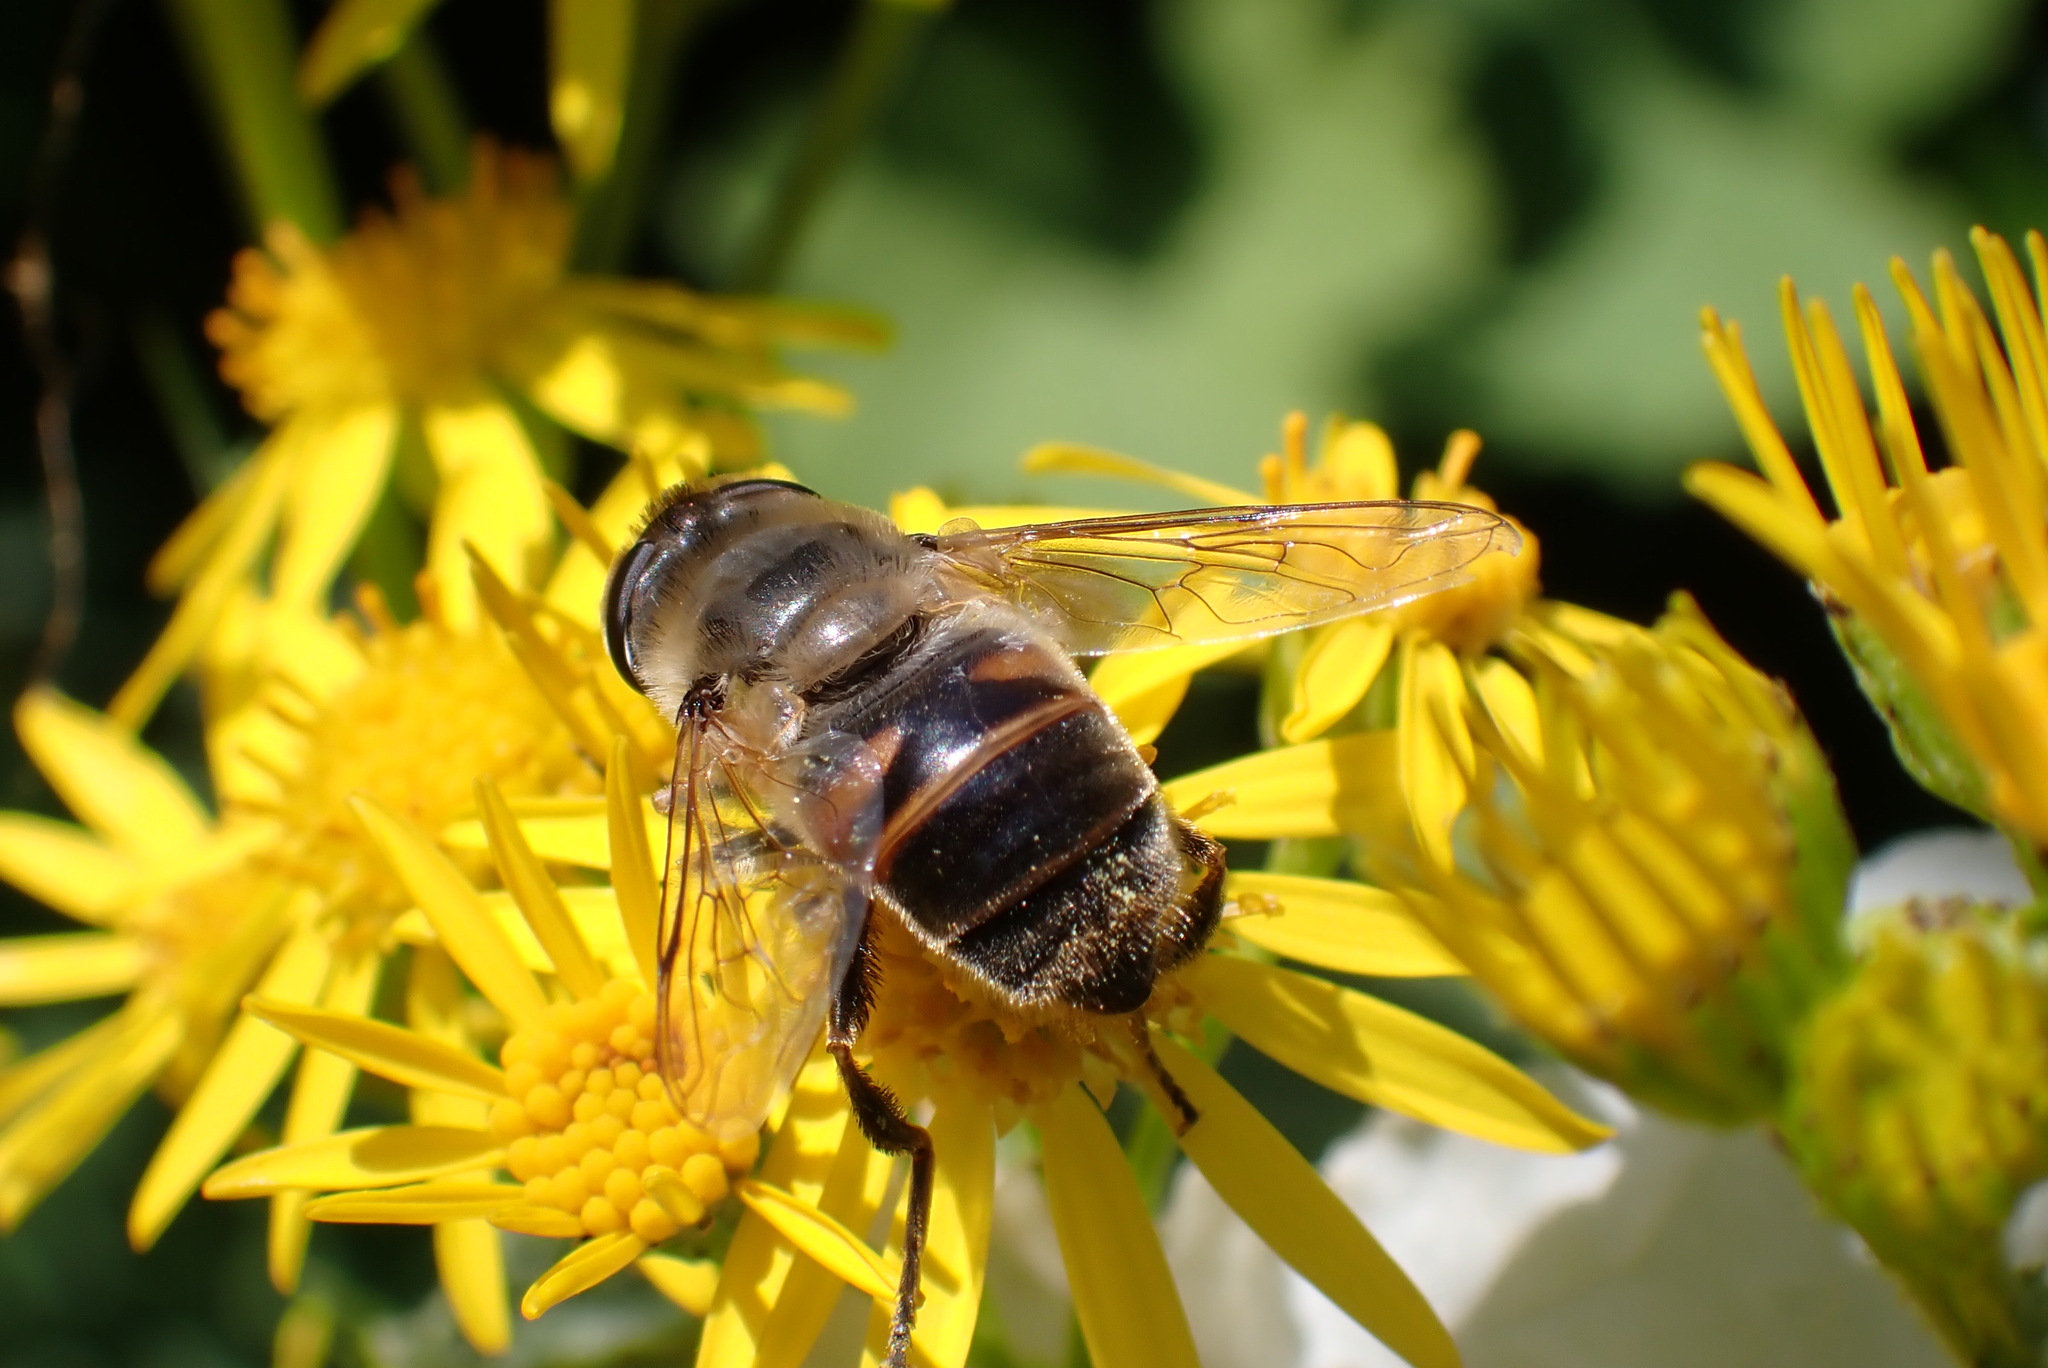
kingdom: Animalia
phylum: Arthropoda
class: Insecta
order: Diptera
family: Syrphidae
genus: Eristalis
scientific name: Eristalis tenax
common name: Drone fly
